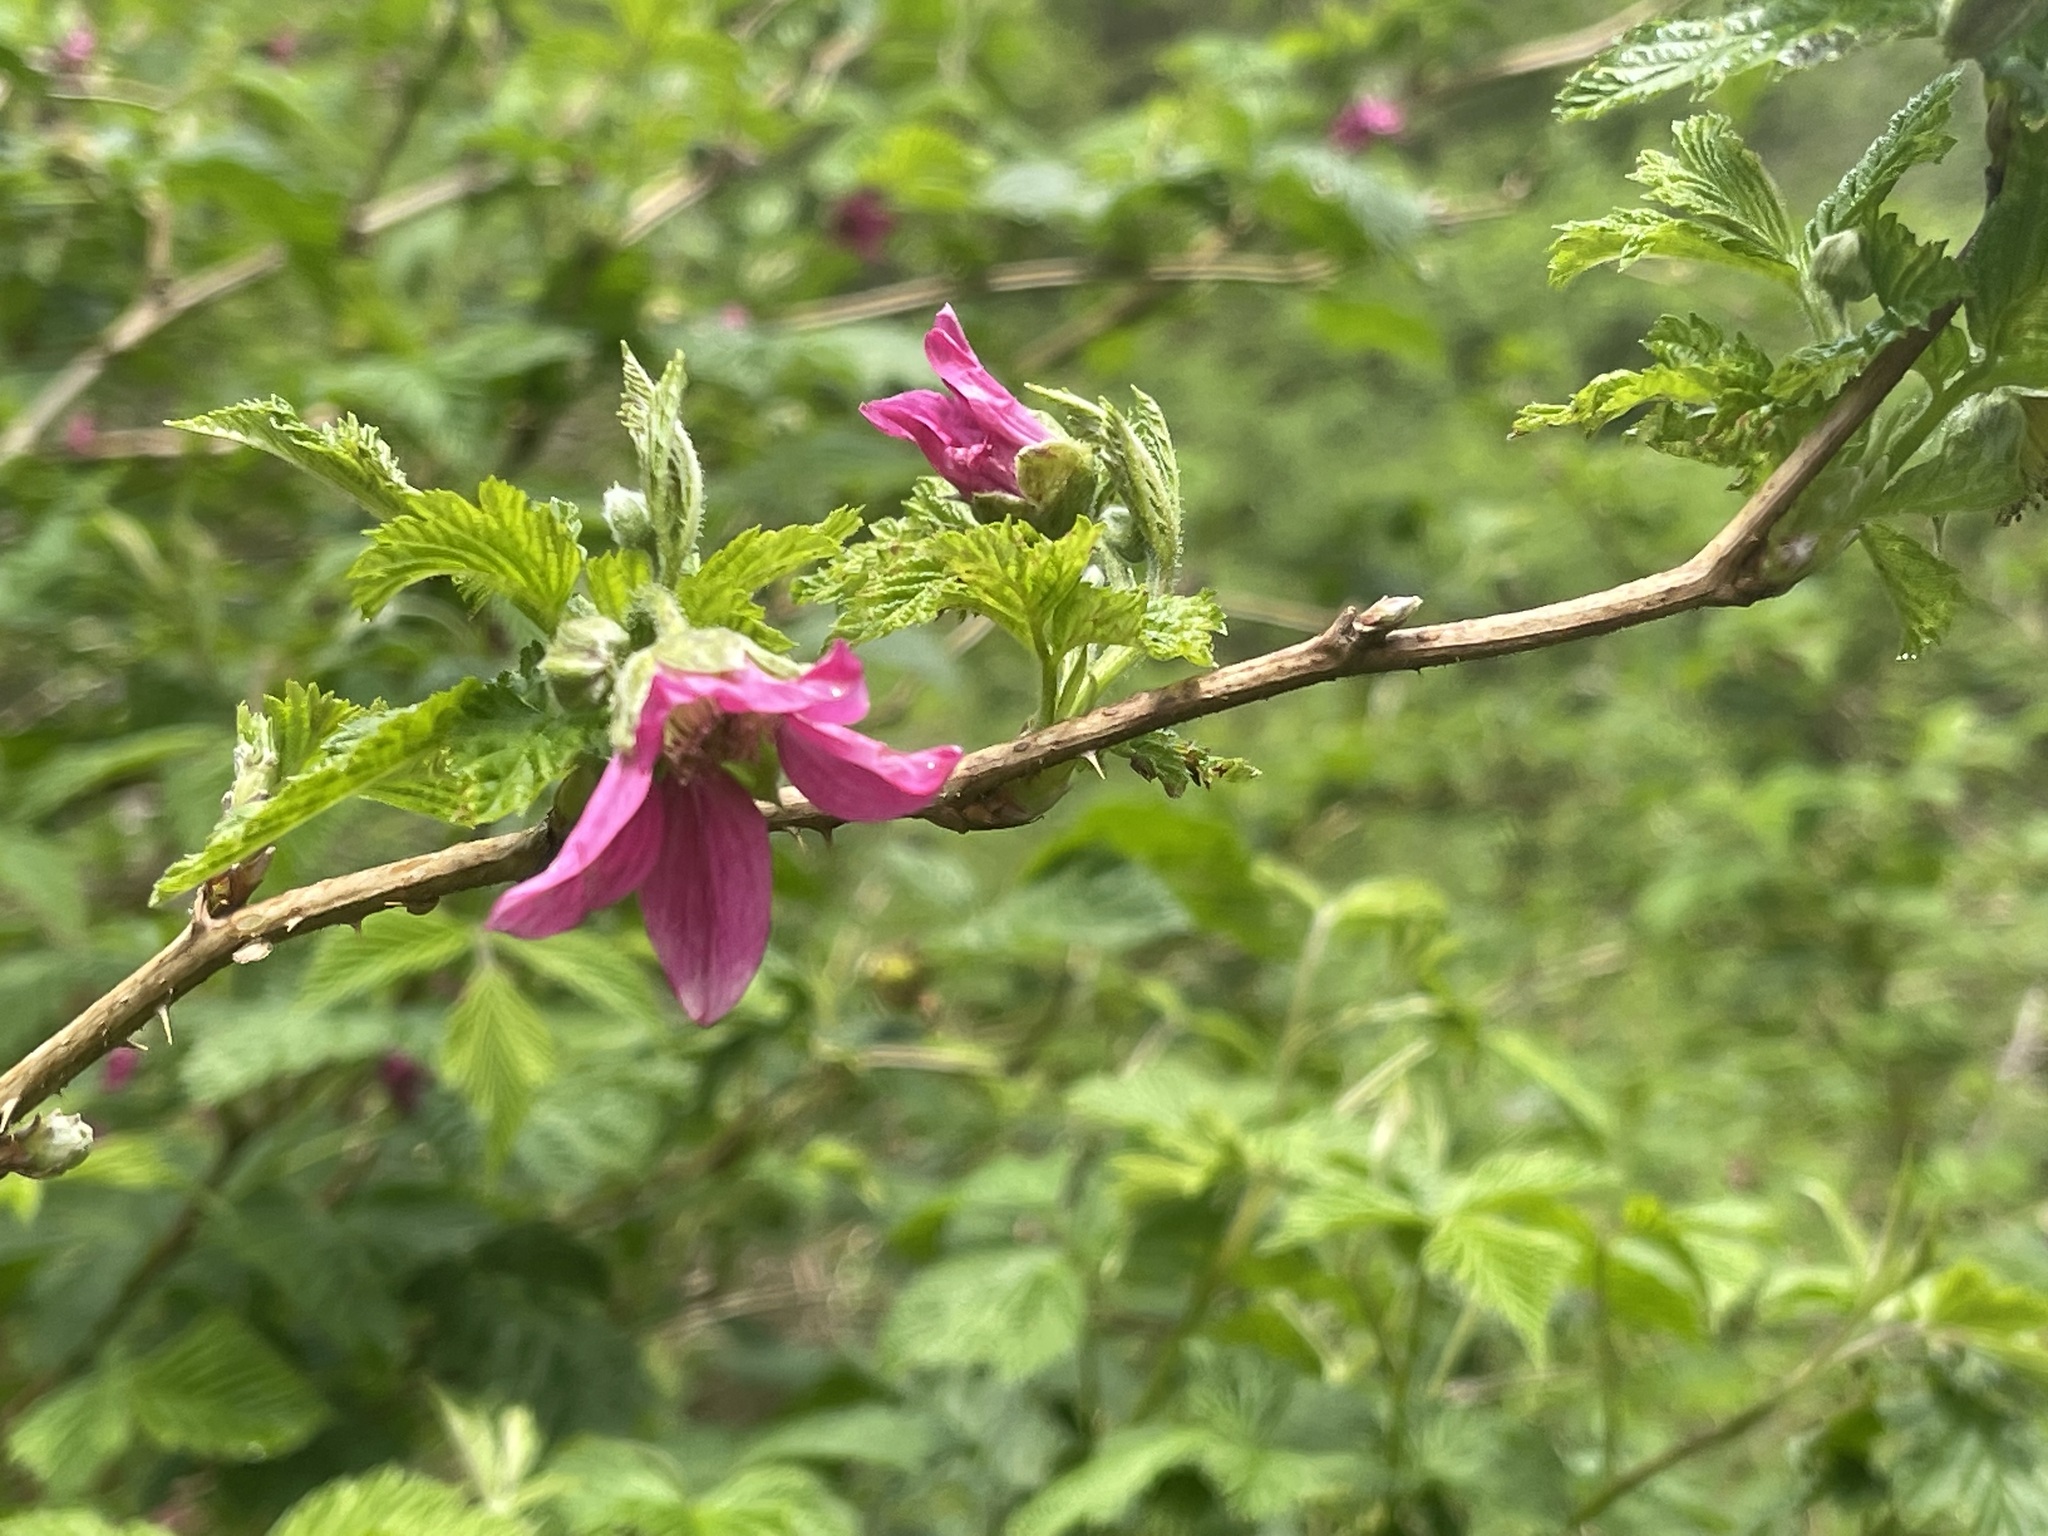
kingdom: Plantae
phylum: Tracheophyta
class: Magnoliopsida
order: Rosales
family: Rosaceae
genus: Rubus
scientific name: Rubus spectabilis
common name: Salmonberry
